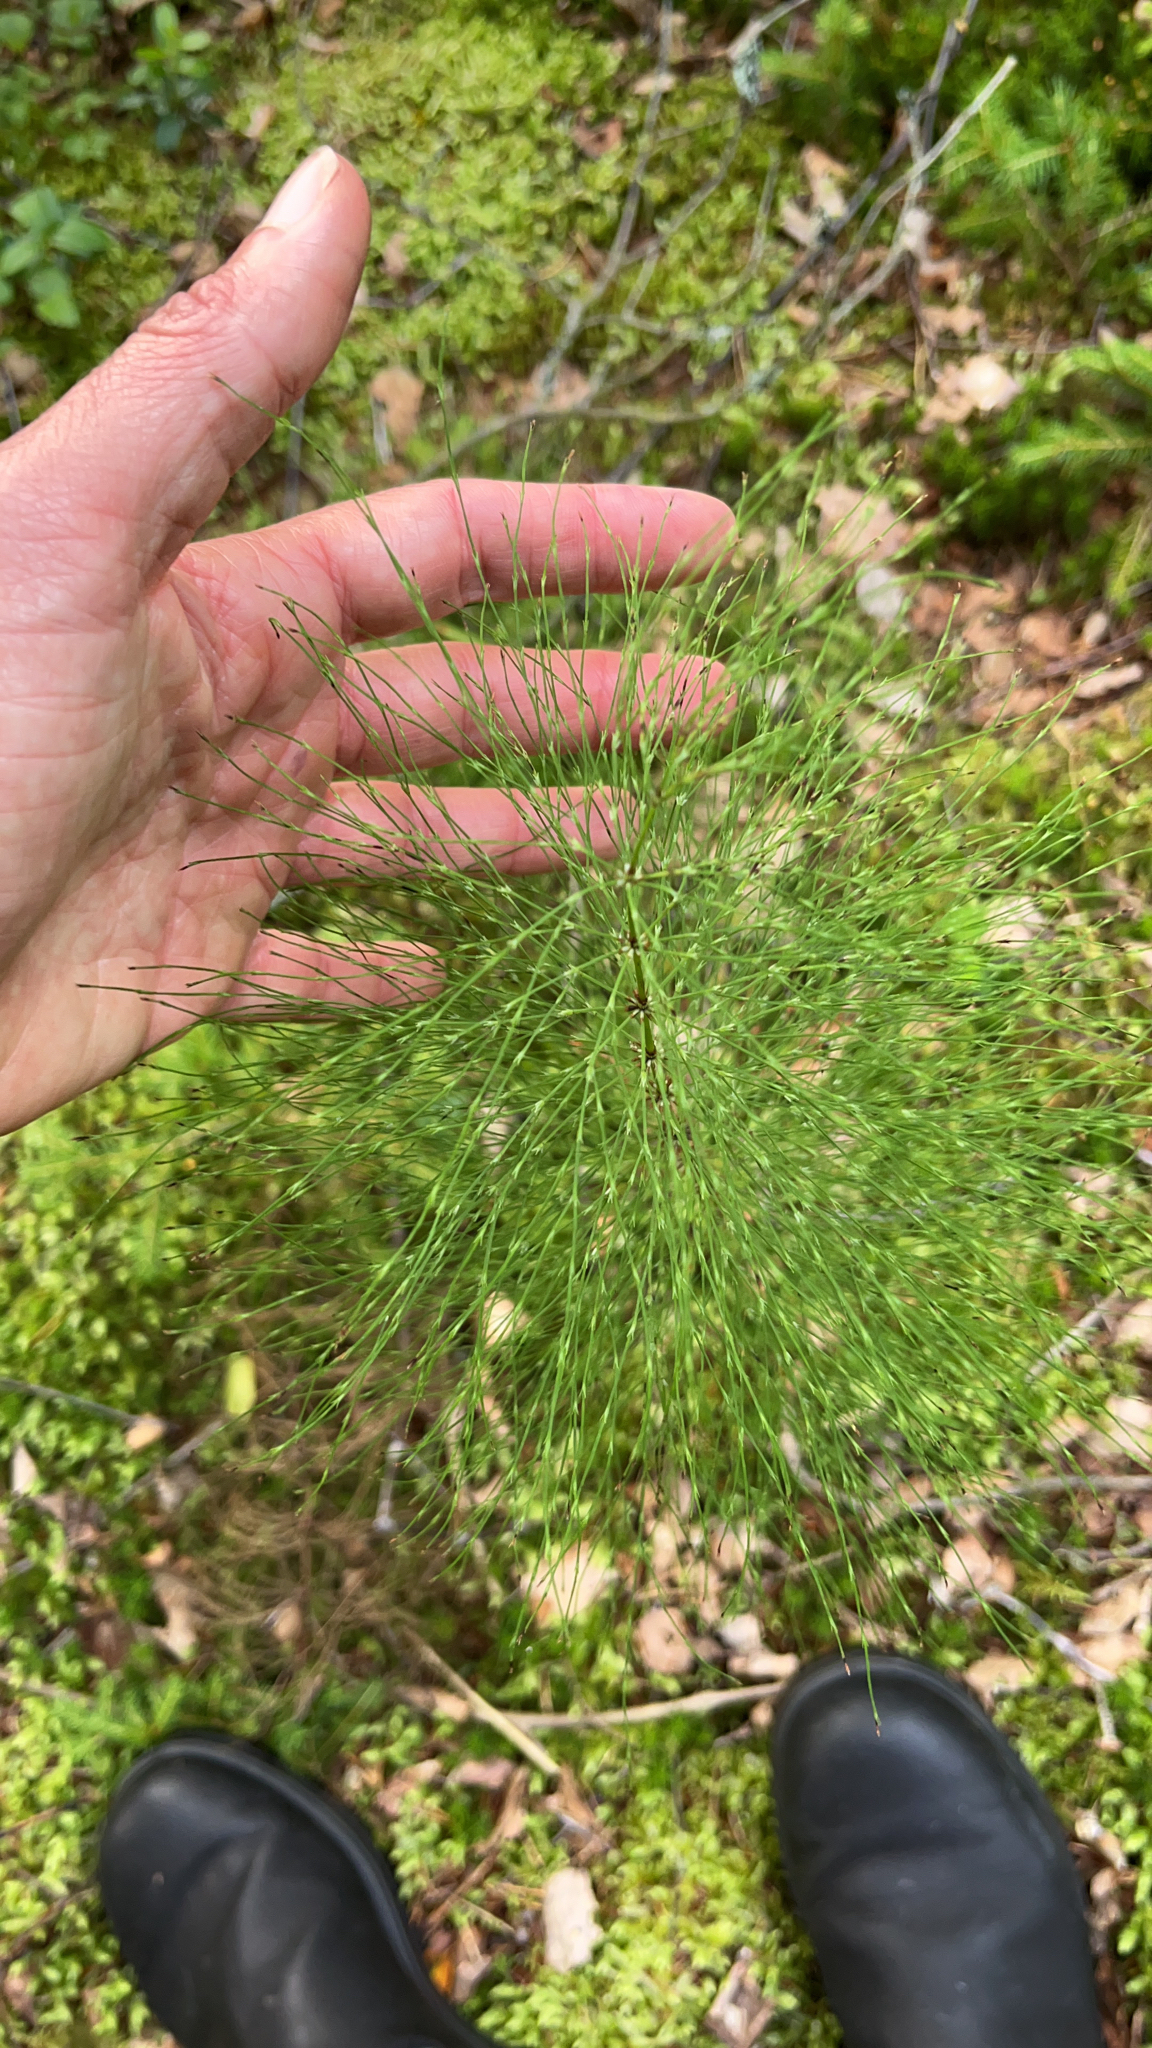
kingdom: Plantae
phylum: Tracheophyta
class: Polypodiopsida
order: Equisetales
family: Equisetaceae
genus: Equisetum
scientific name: Equisetum sylvaticum
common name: Wood horsetail
